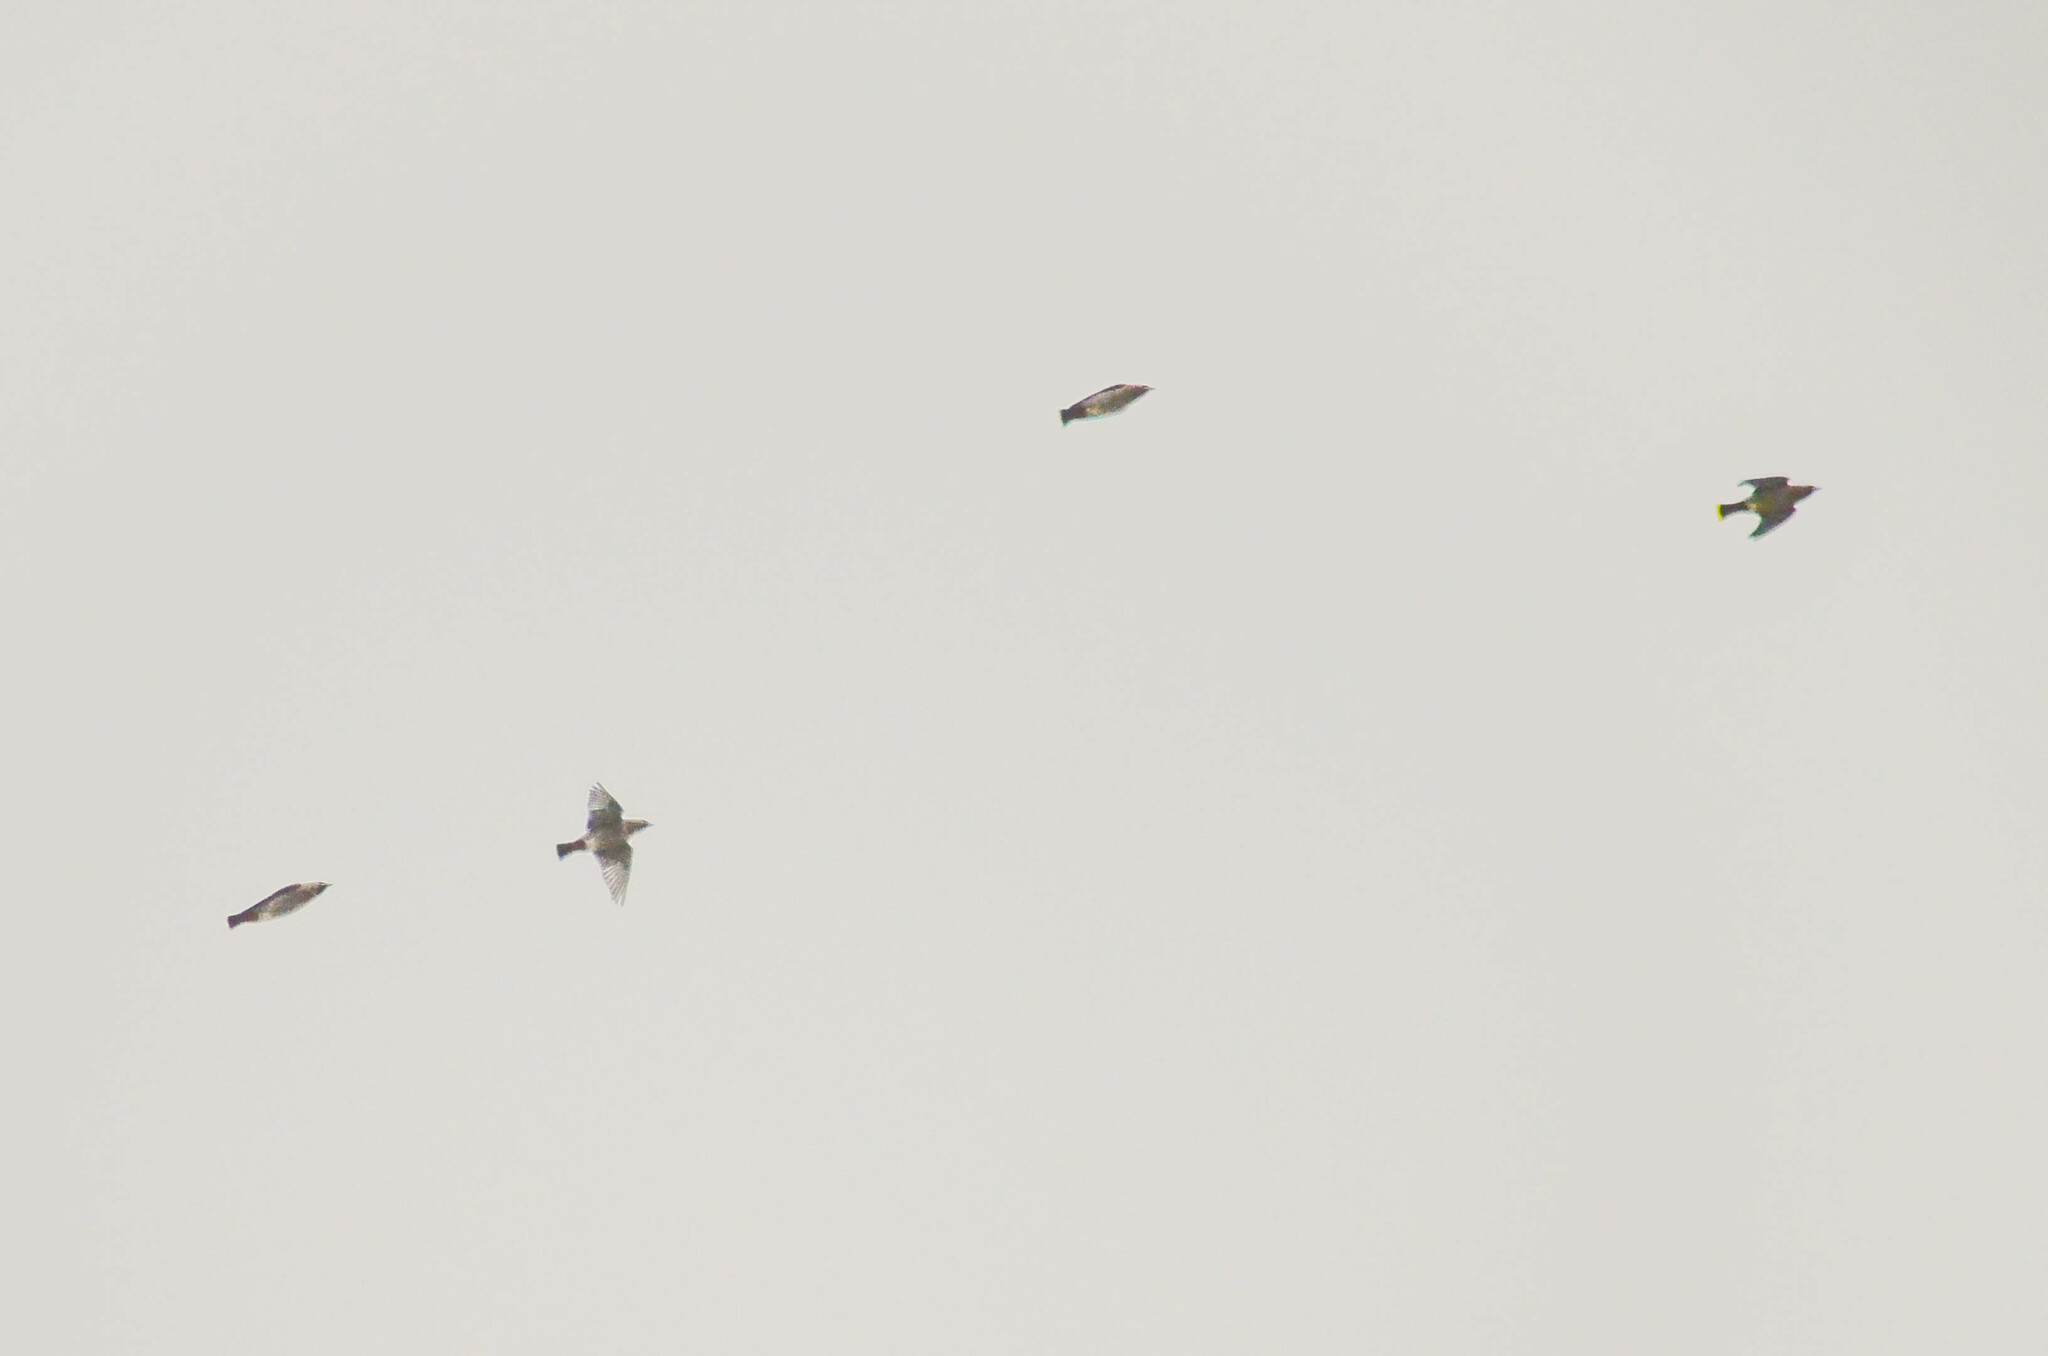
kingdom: Animalia
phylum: Chordata
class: Aves
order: Passeriformes
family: Bombycillidae
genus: Bombycilla
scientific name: Bombycilla garrulus
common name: Bohemian waxwing
